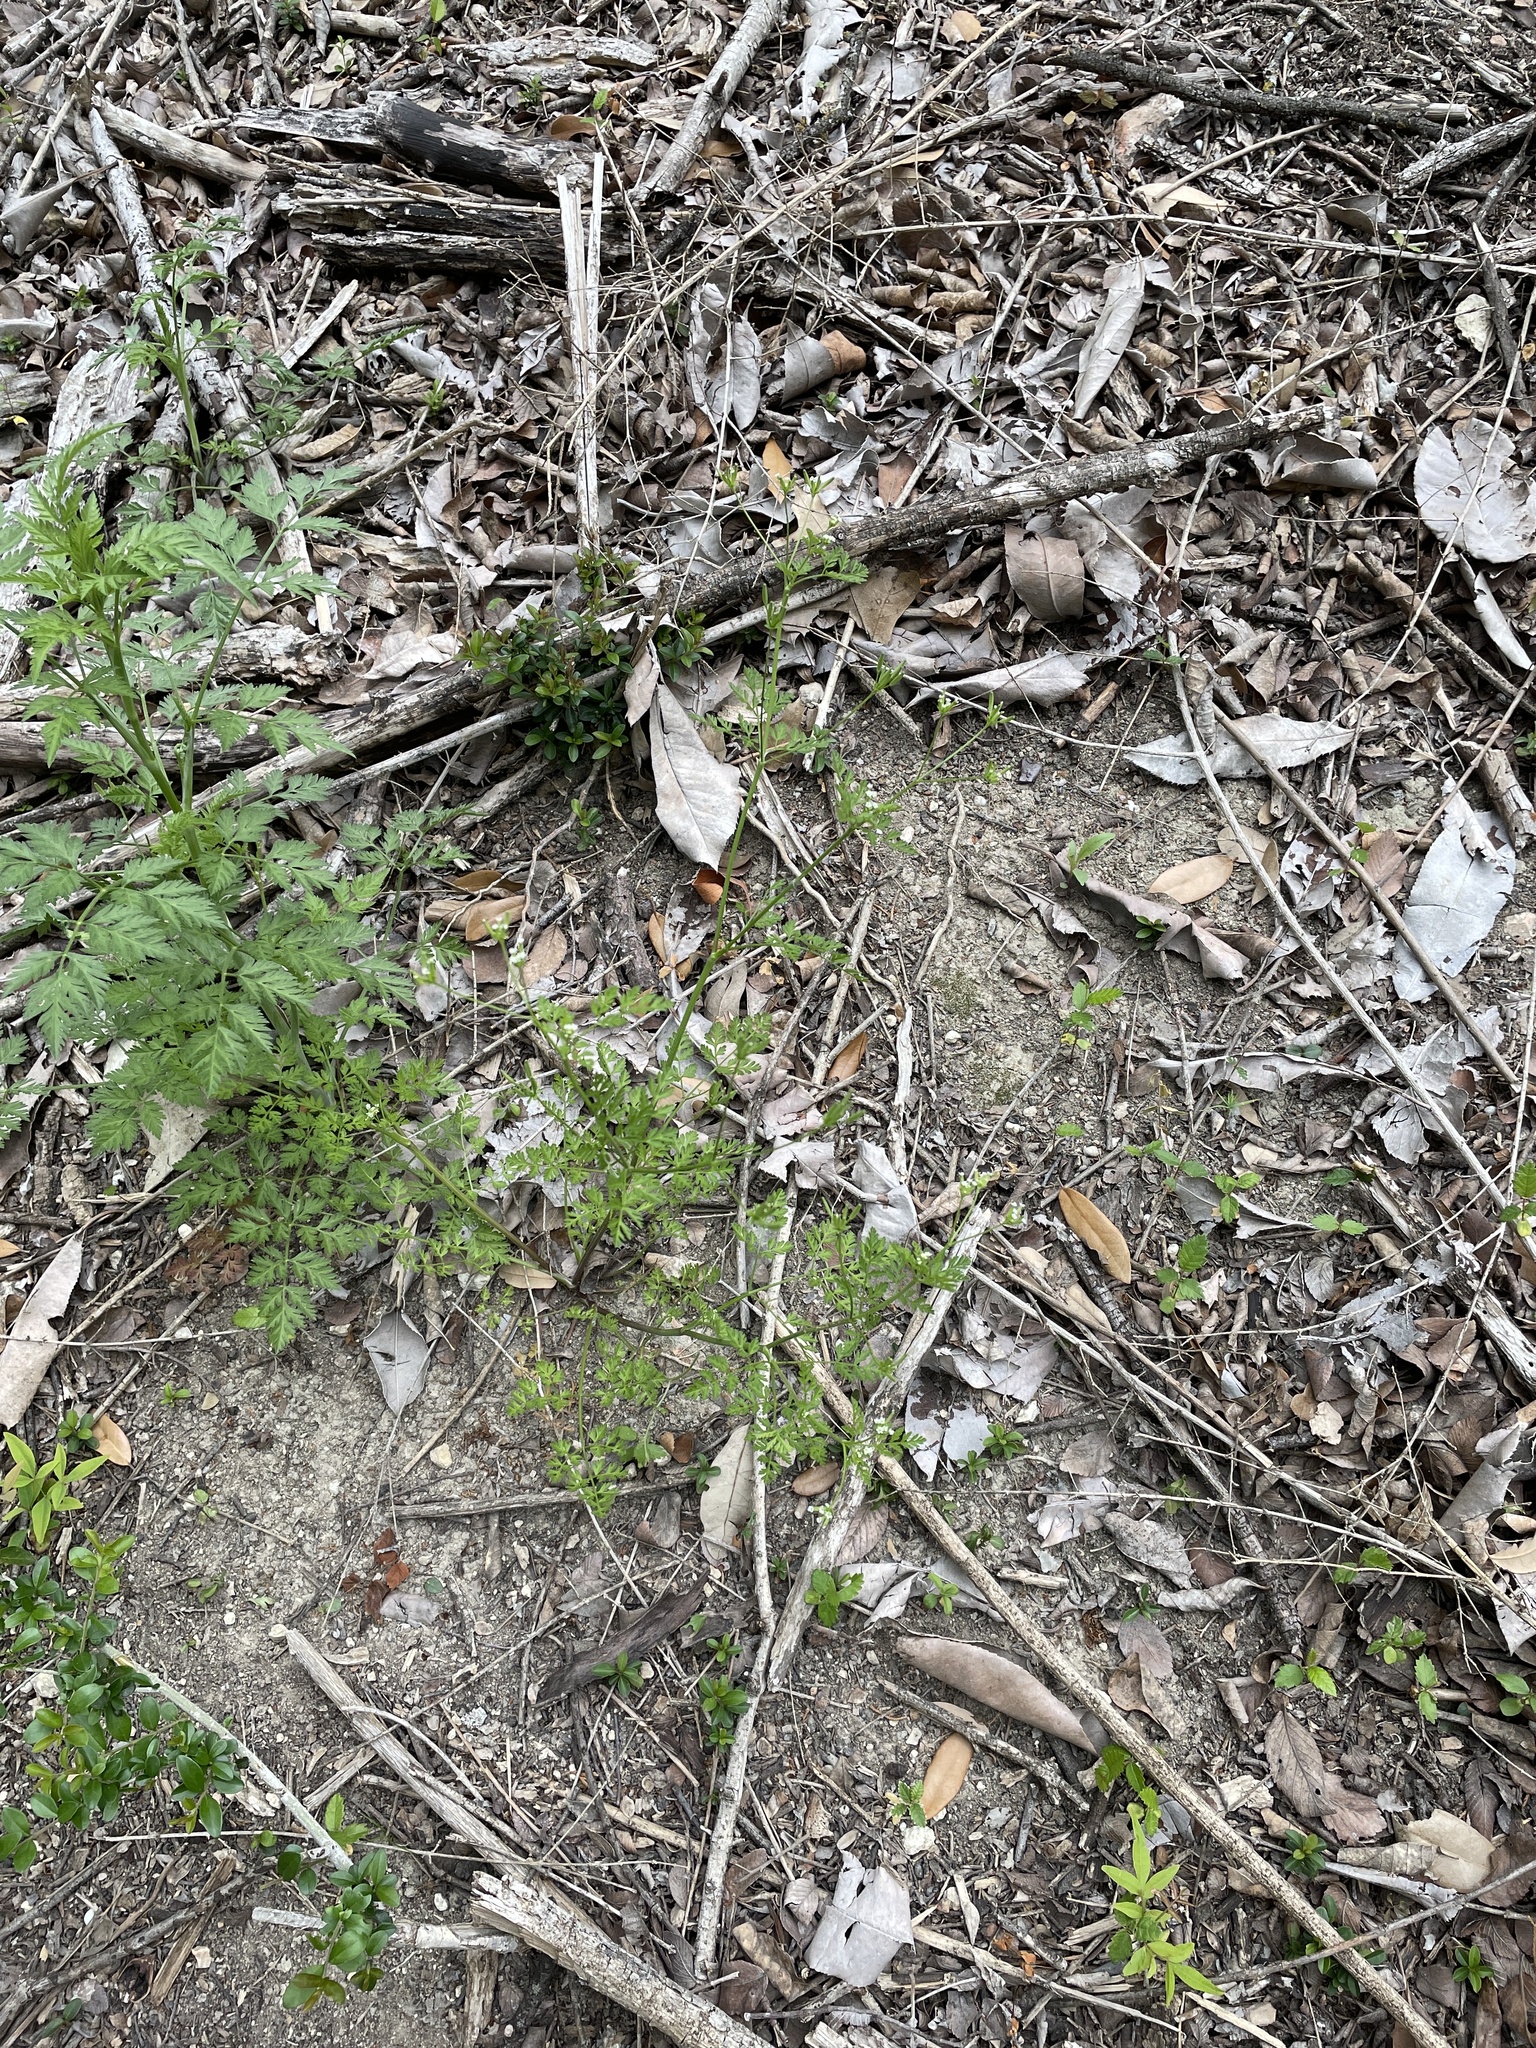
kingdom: Plantae
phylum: Tracheophyta
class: Magnoliopsida
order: Apiales
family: Apiaceae
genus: Chaerophyllum
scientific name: Chaerophyllum tainturieri
